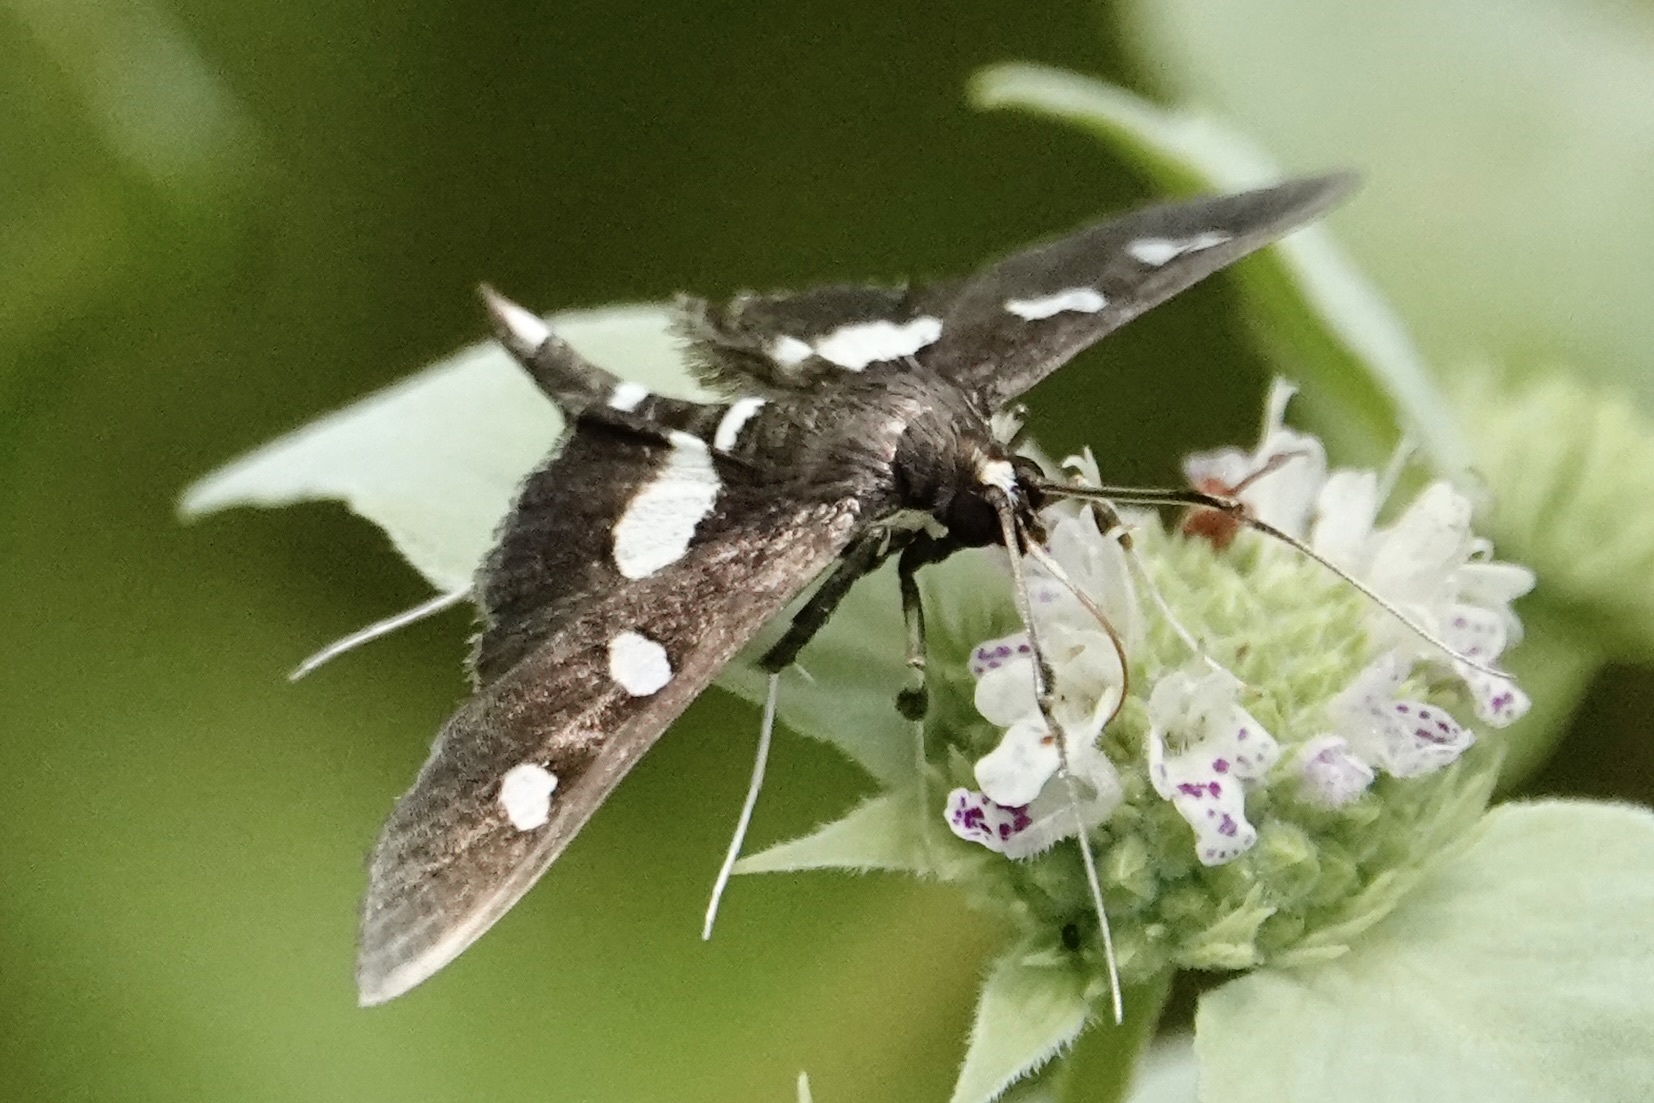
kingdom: Animalia
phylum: Arthropoda
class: Insecta
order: Lepidoptera
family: Crambidae
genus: Desmia
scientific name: Desmia
